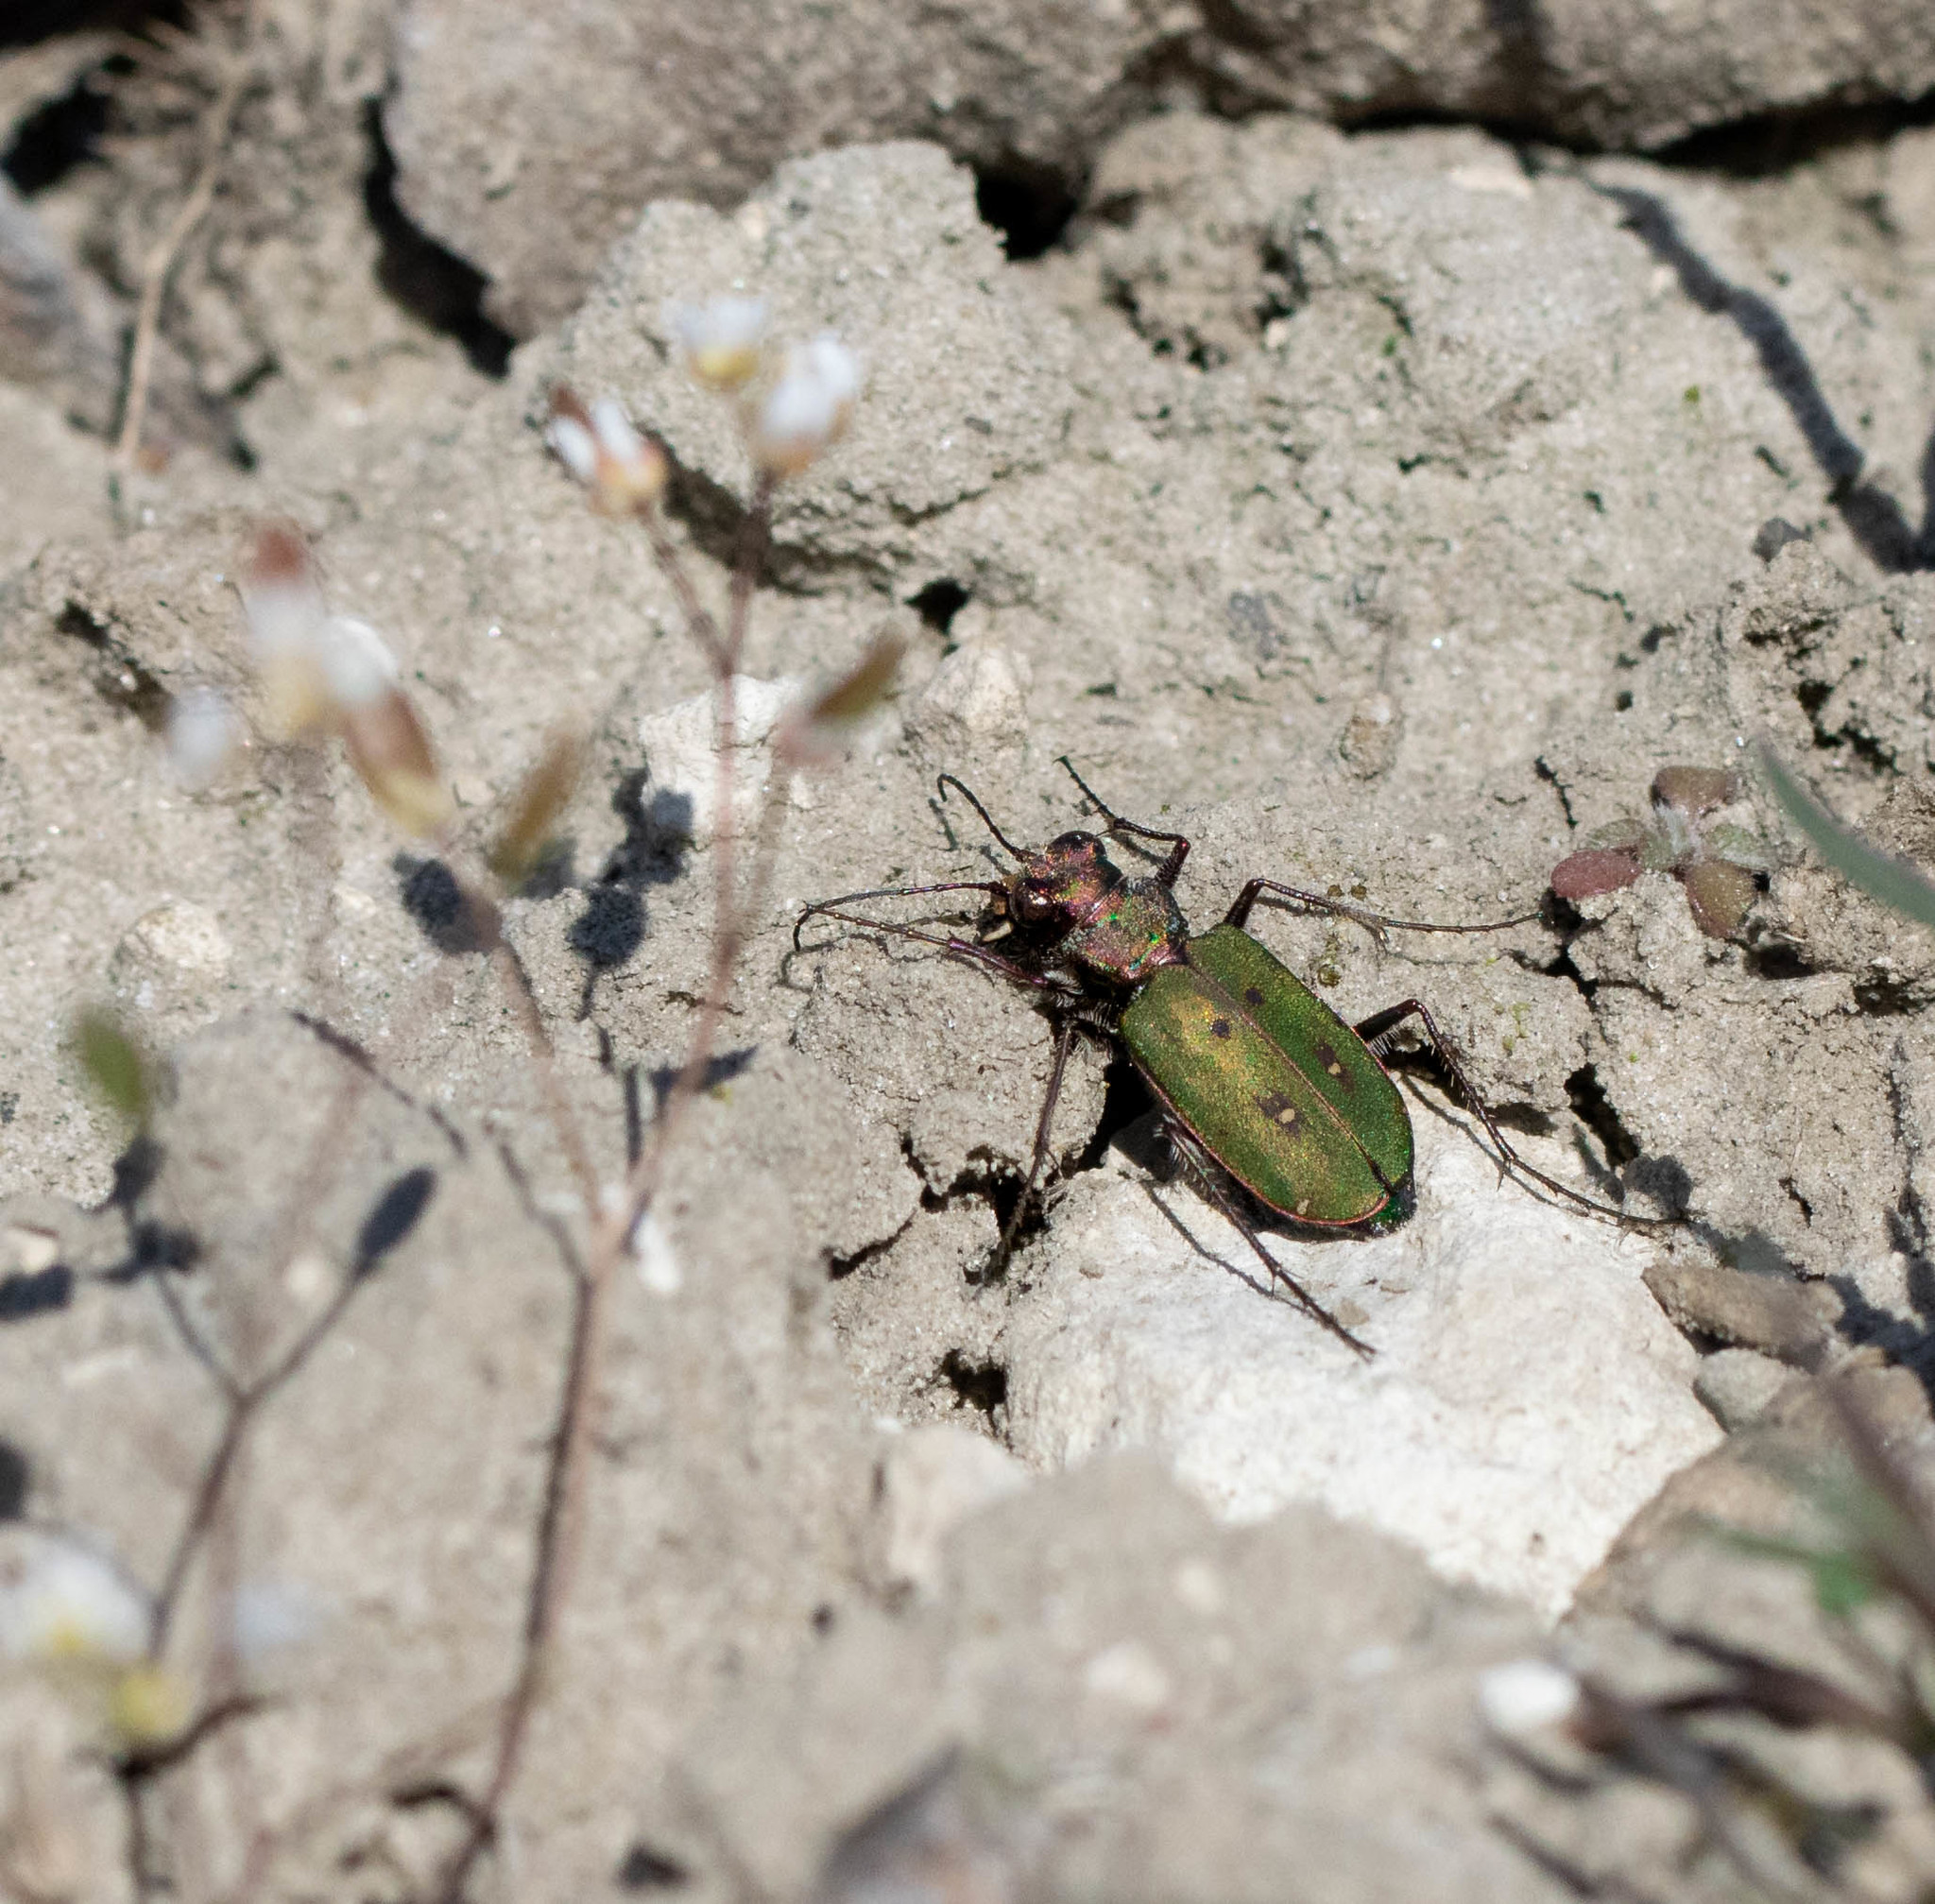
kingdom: Animalia
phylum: Arthropoda
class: Insecta
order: Coleoptera
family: Carabidae
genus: Cicindela
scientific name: Cicindela campestris
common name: Common tiger beetle
